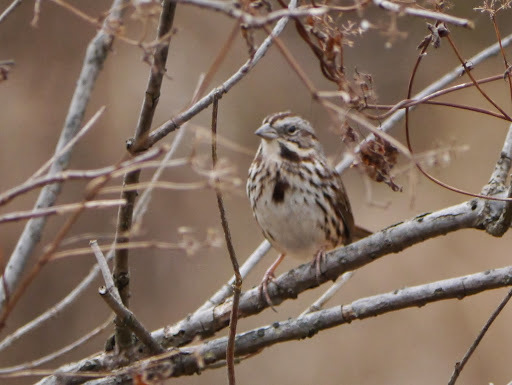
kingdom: Animalia
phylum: Chordata
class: Aves
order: Passeriformes
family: Passerellidae
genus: Melospiza
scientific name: Melospiza melodia
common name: Song sparrow
